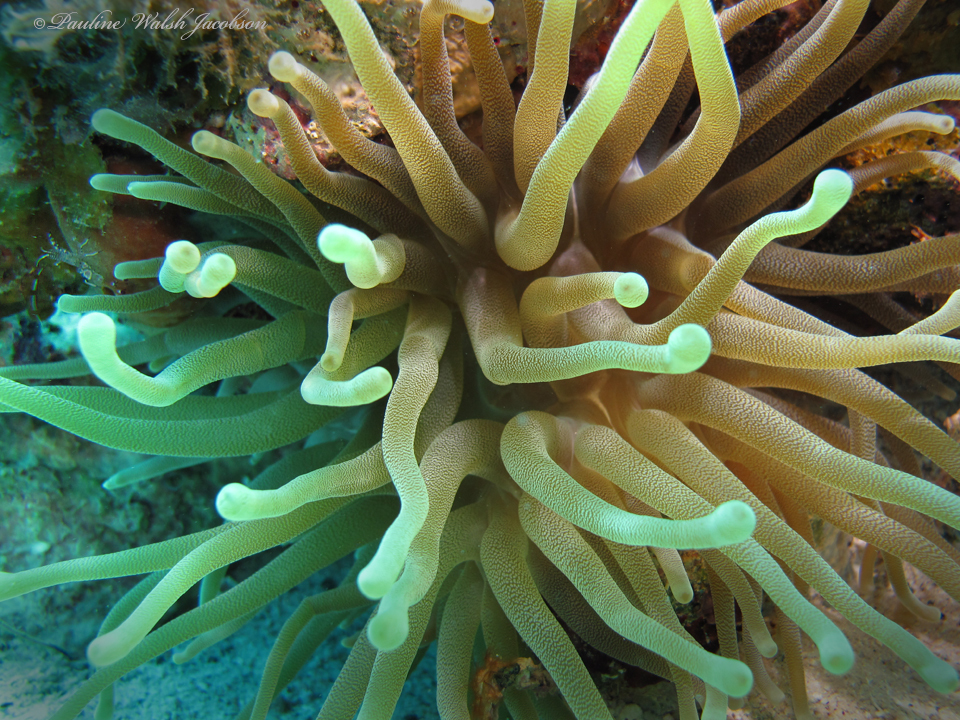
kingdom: Animalia
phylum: Cnidaria
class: Anthozoa
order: Actiniaria
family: Actiniidae
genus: Condylactis
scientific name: Condylactis gigantea
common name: Giant caribbean anemone
